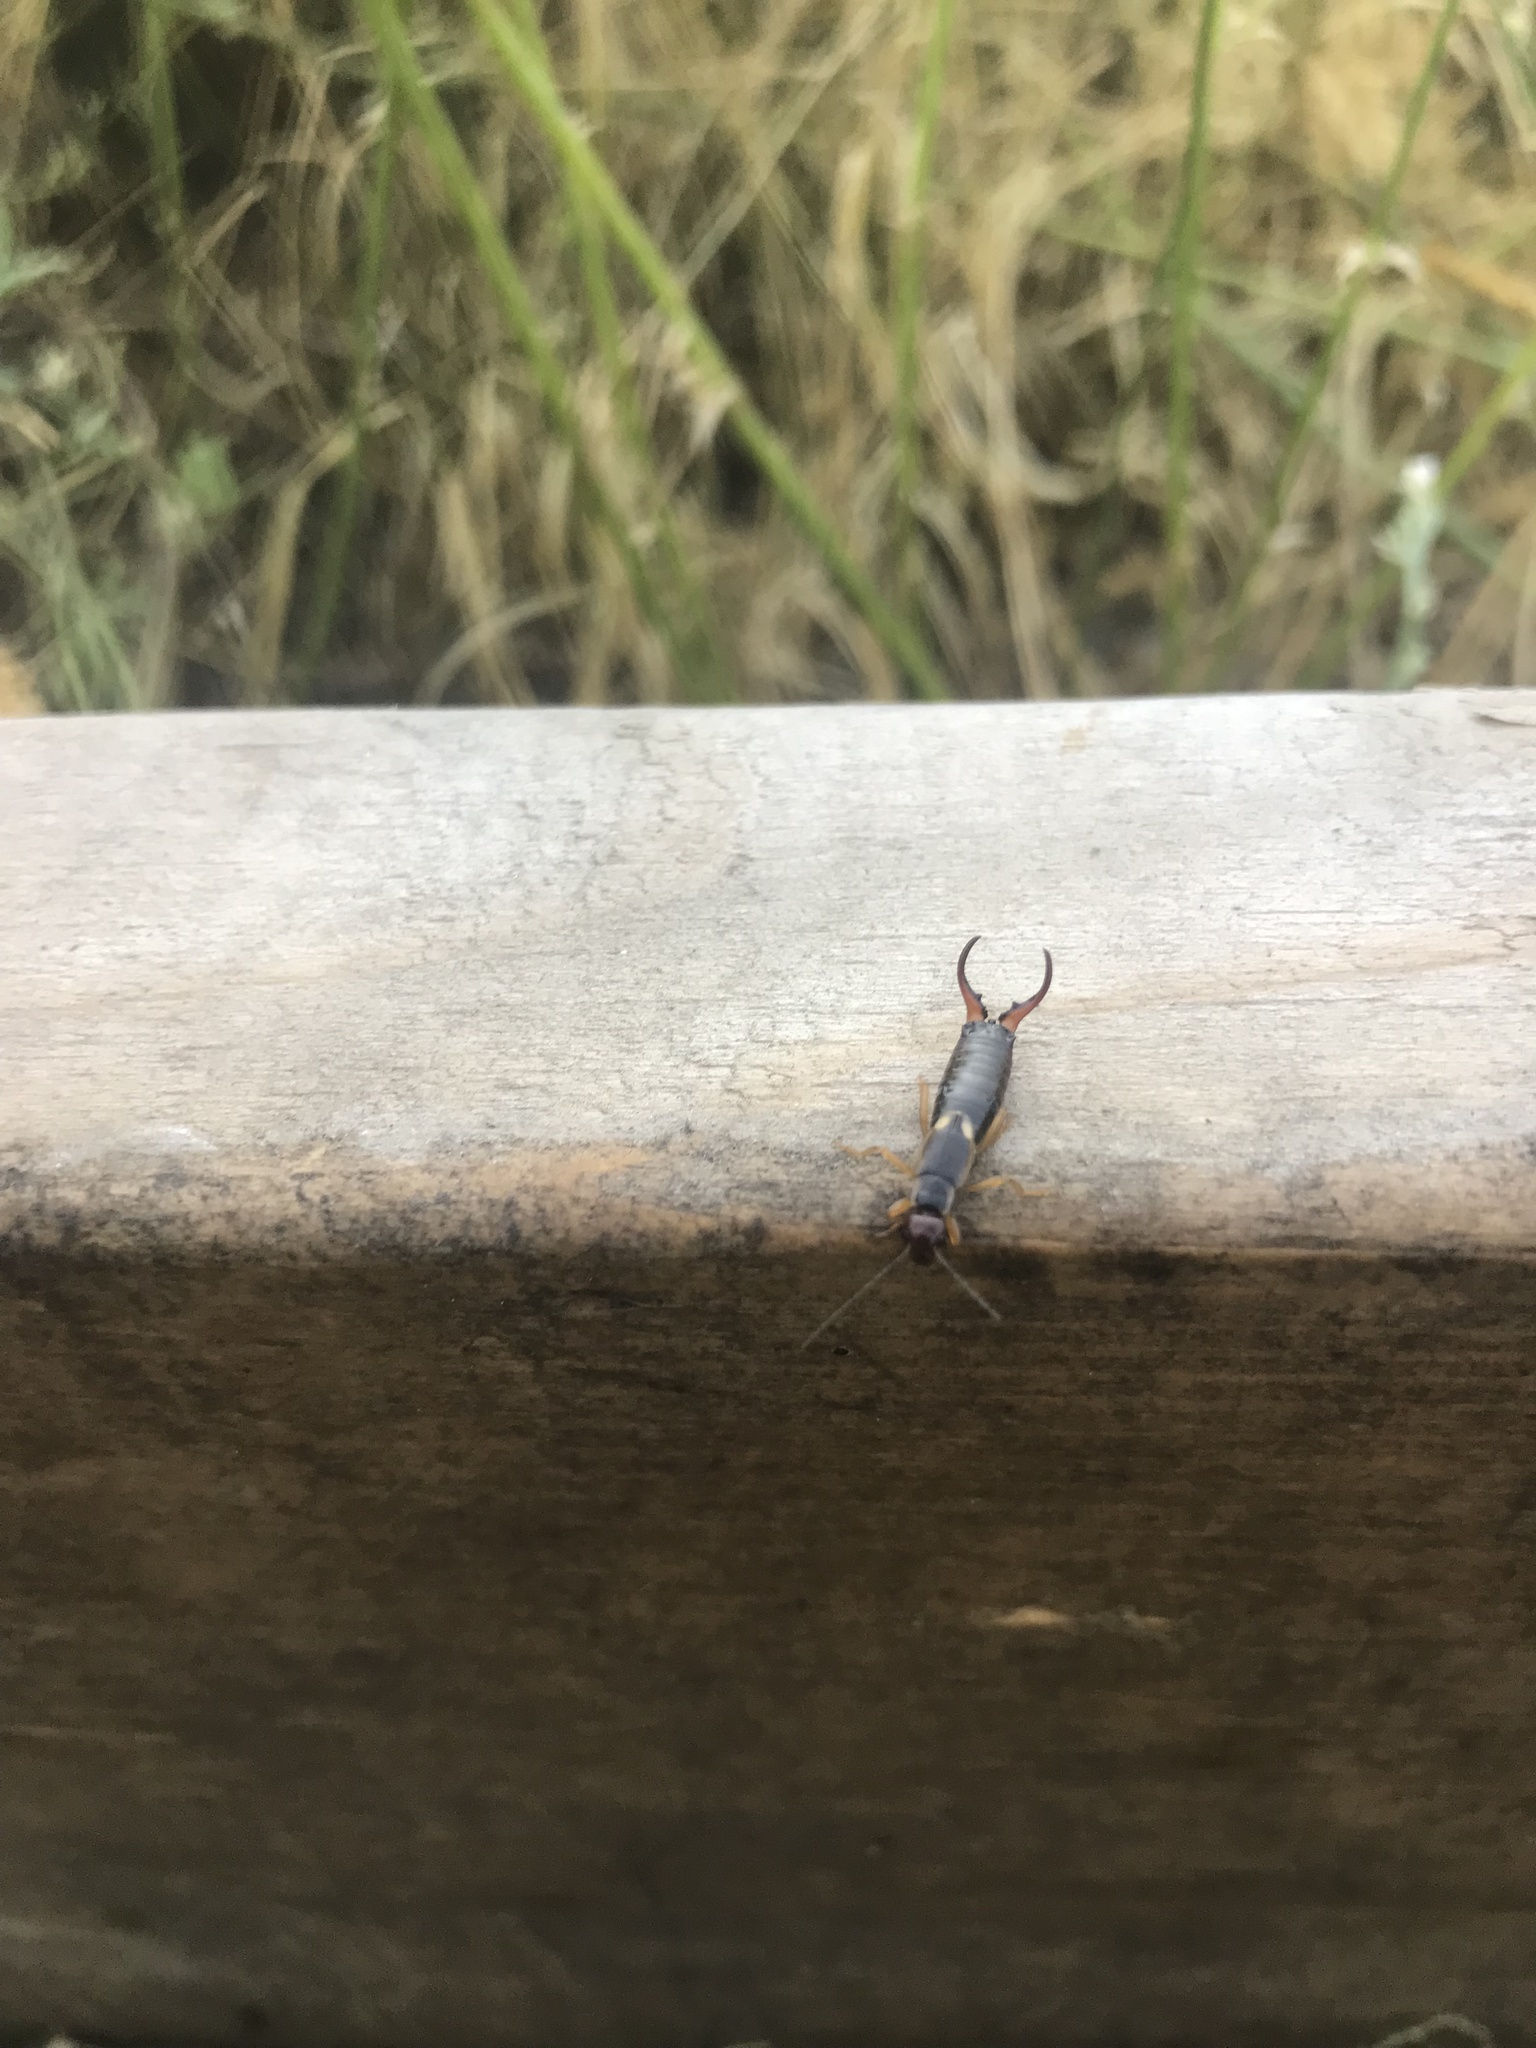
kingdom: Animalia
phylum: Arthropoda
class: Insecta
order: Dermaptera
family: Forficulidae
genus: Forficula
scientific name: Forficula
